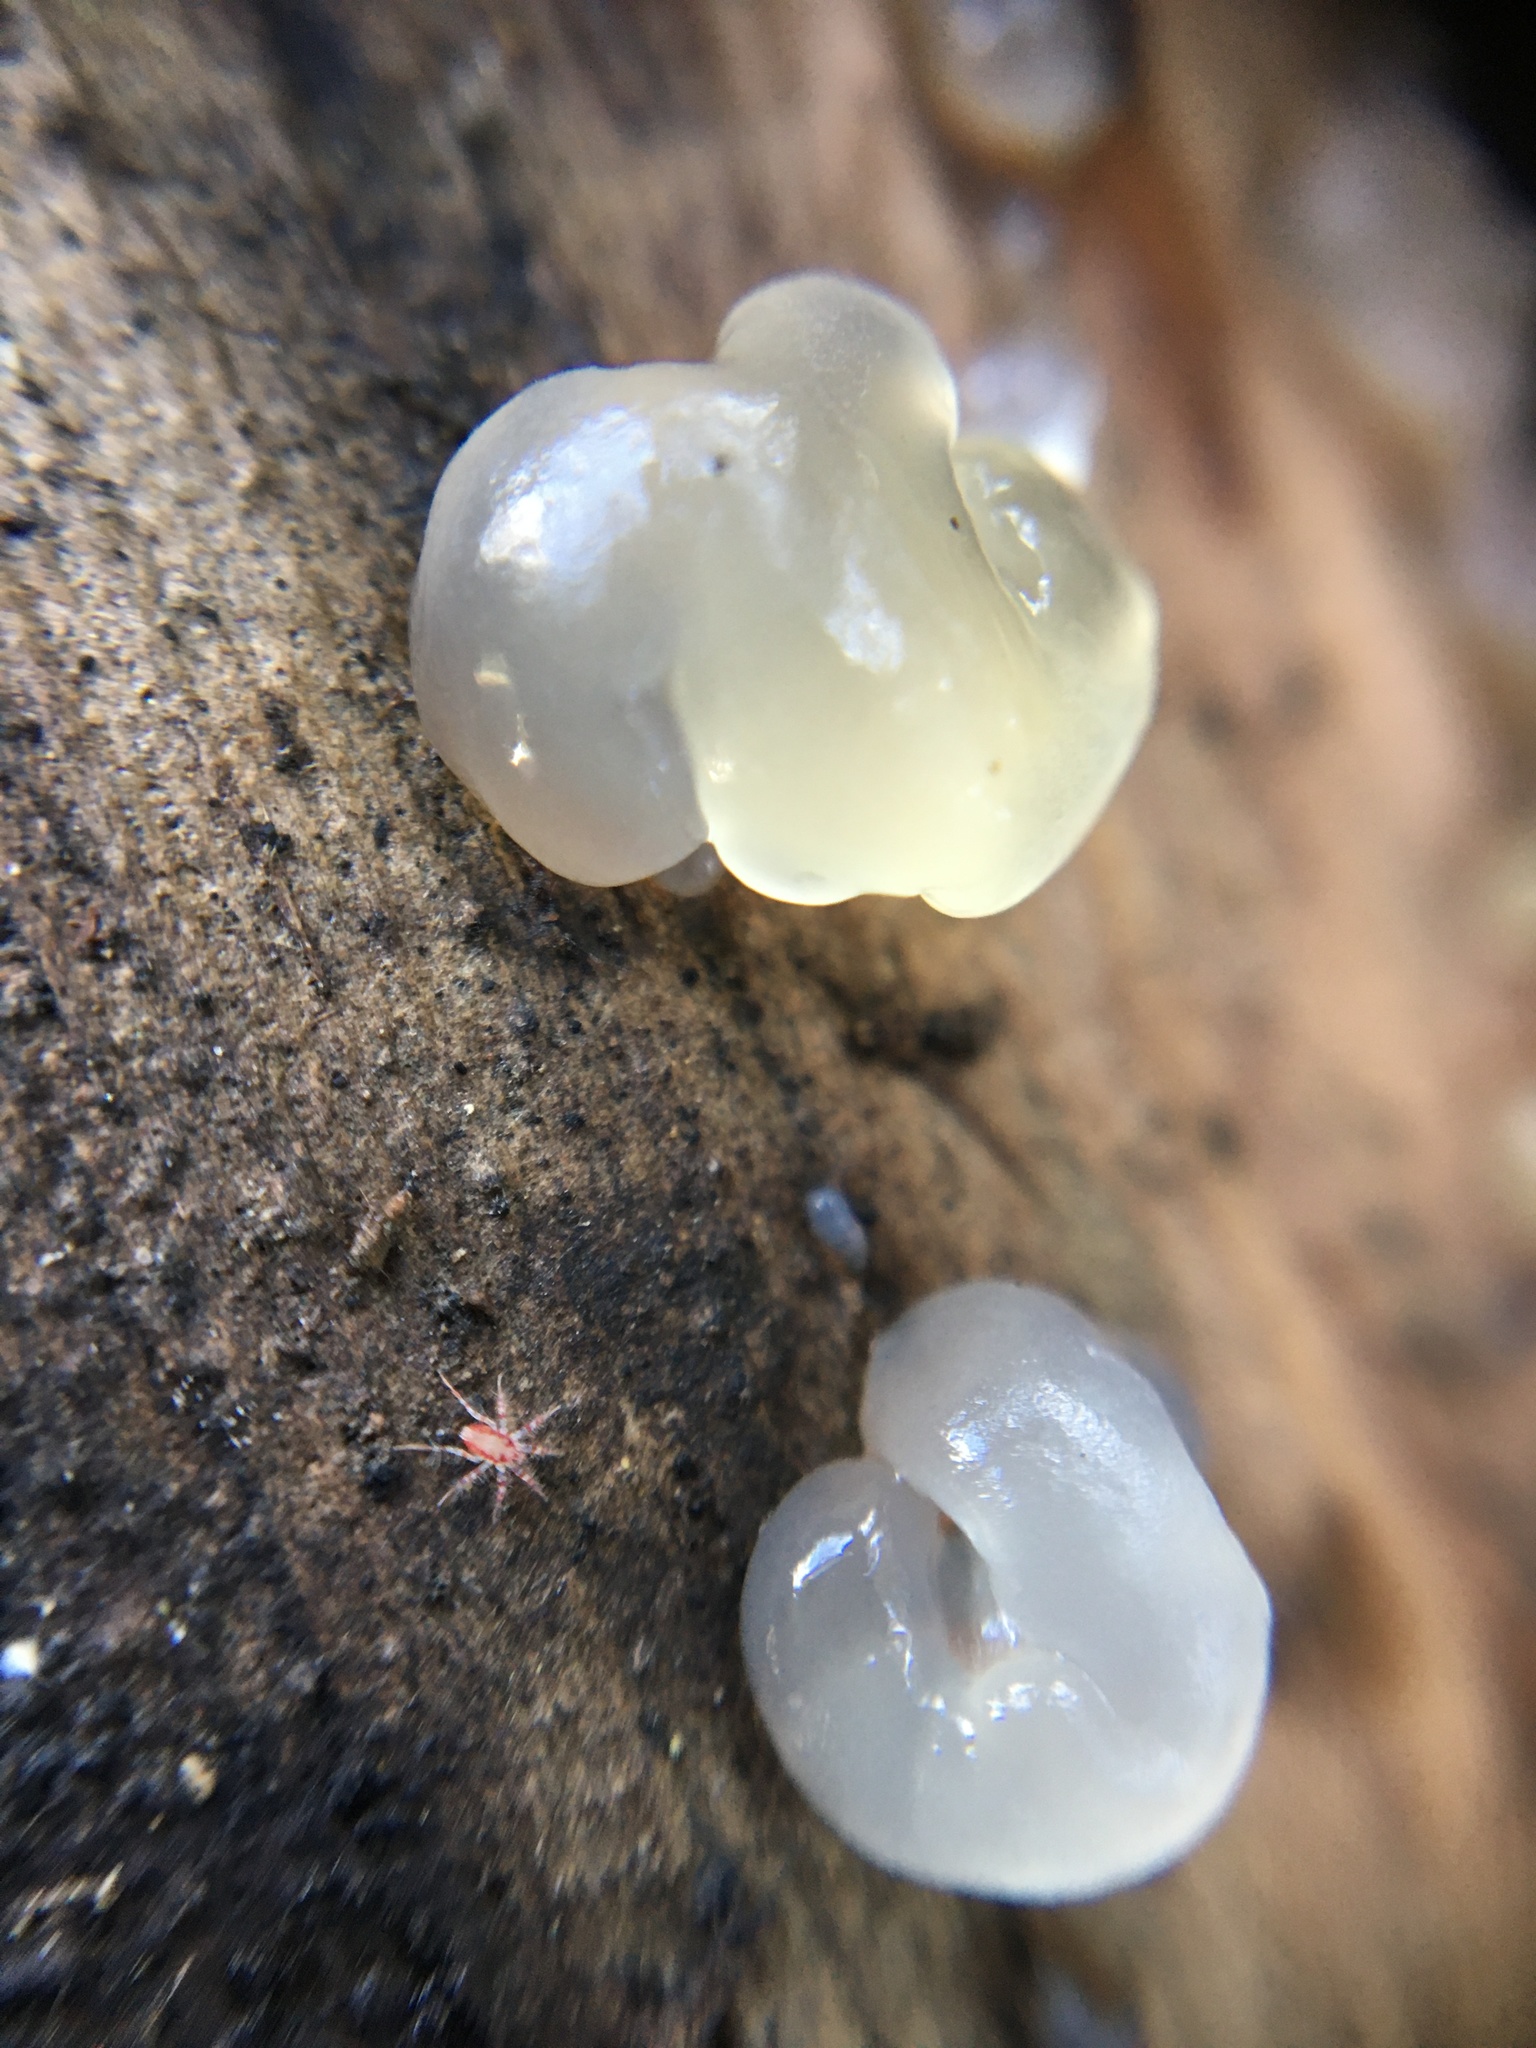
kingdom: Fungi
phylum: Basidiomycota
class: Agaricomycetes
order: Auriculariales
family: Hyaloriaceae
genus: Myxarium
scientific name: Myxarium nucleatum
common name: Crystal brain fungus
